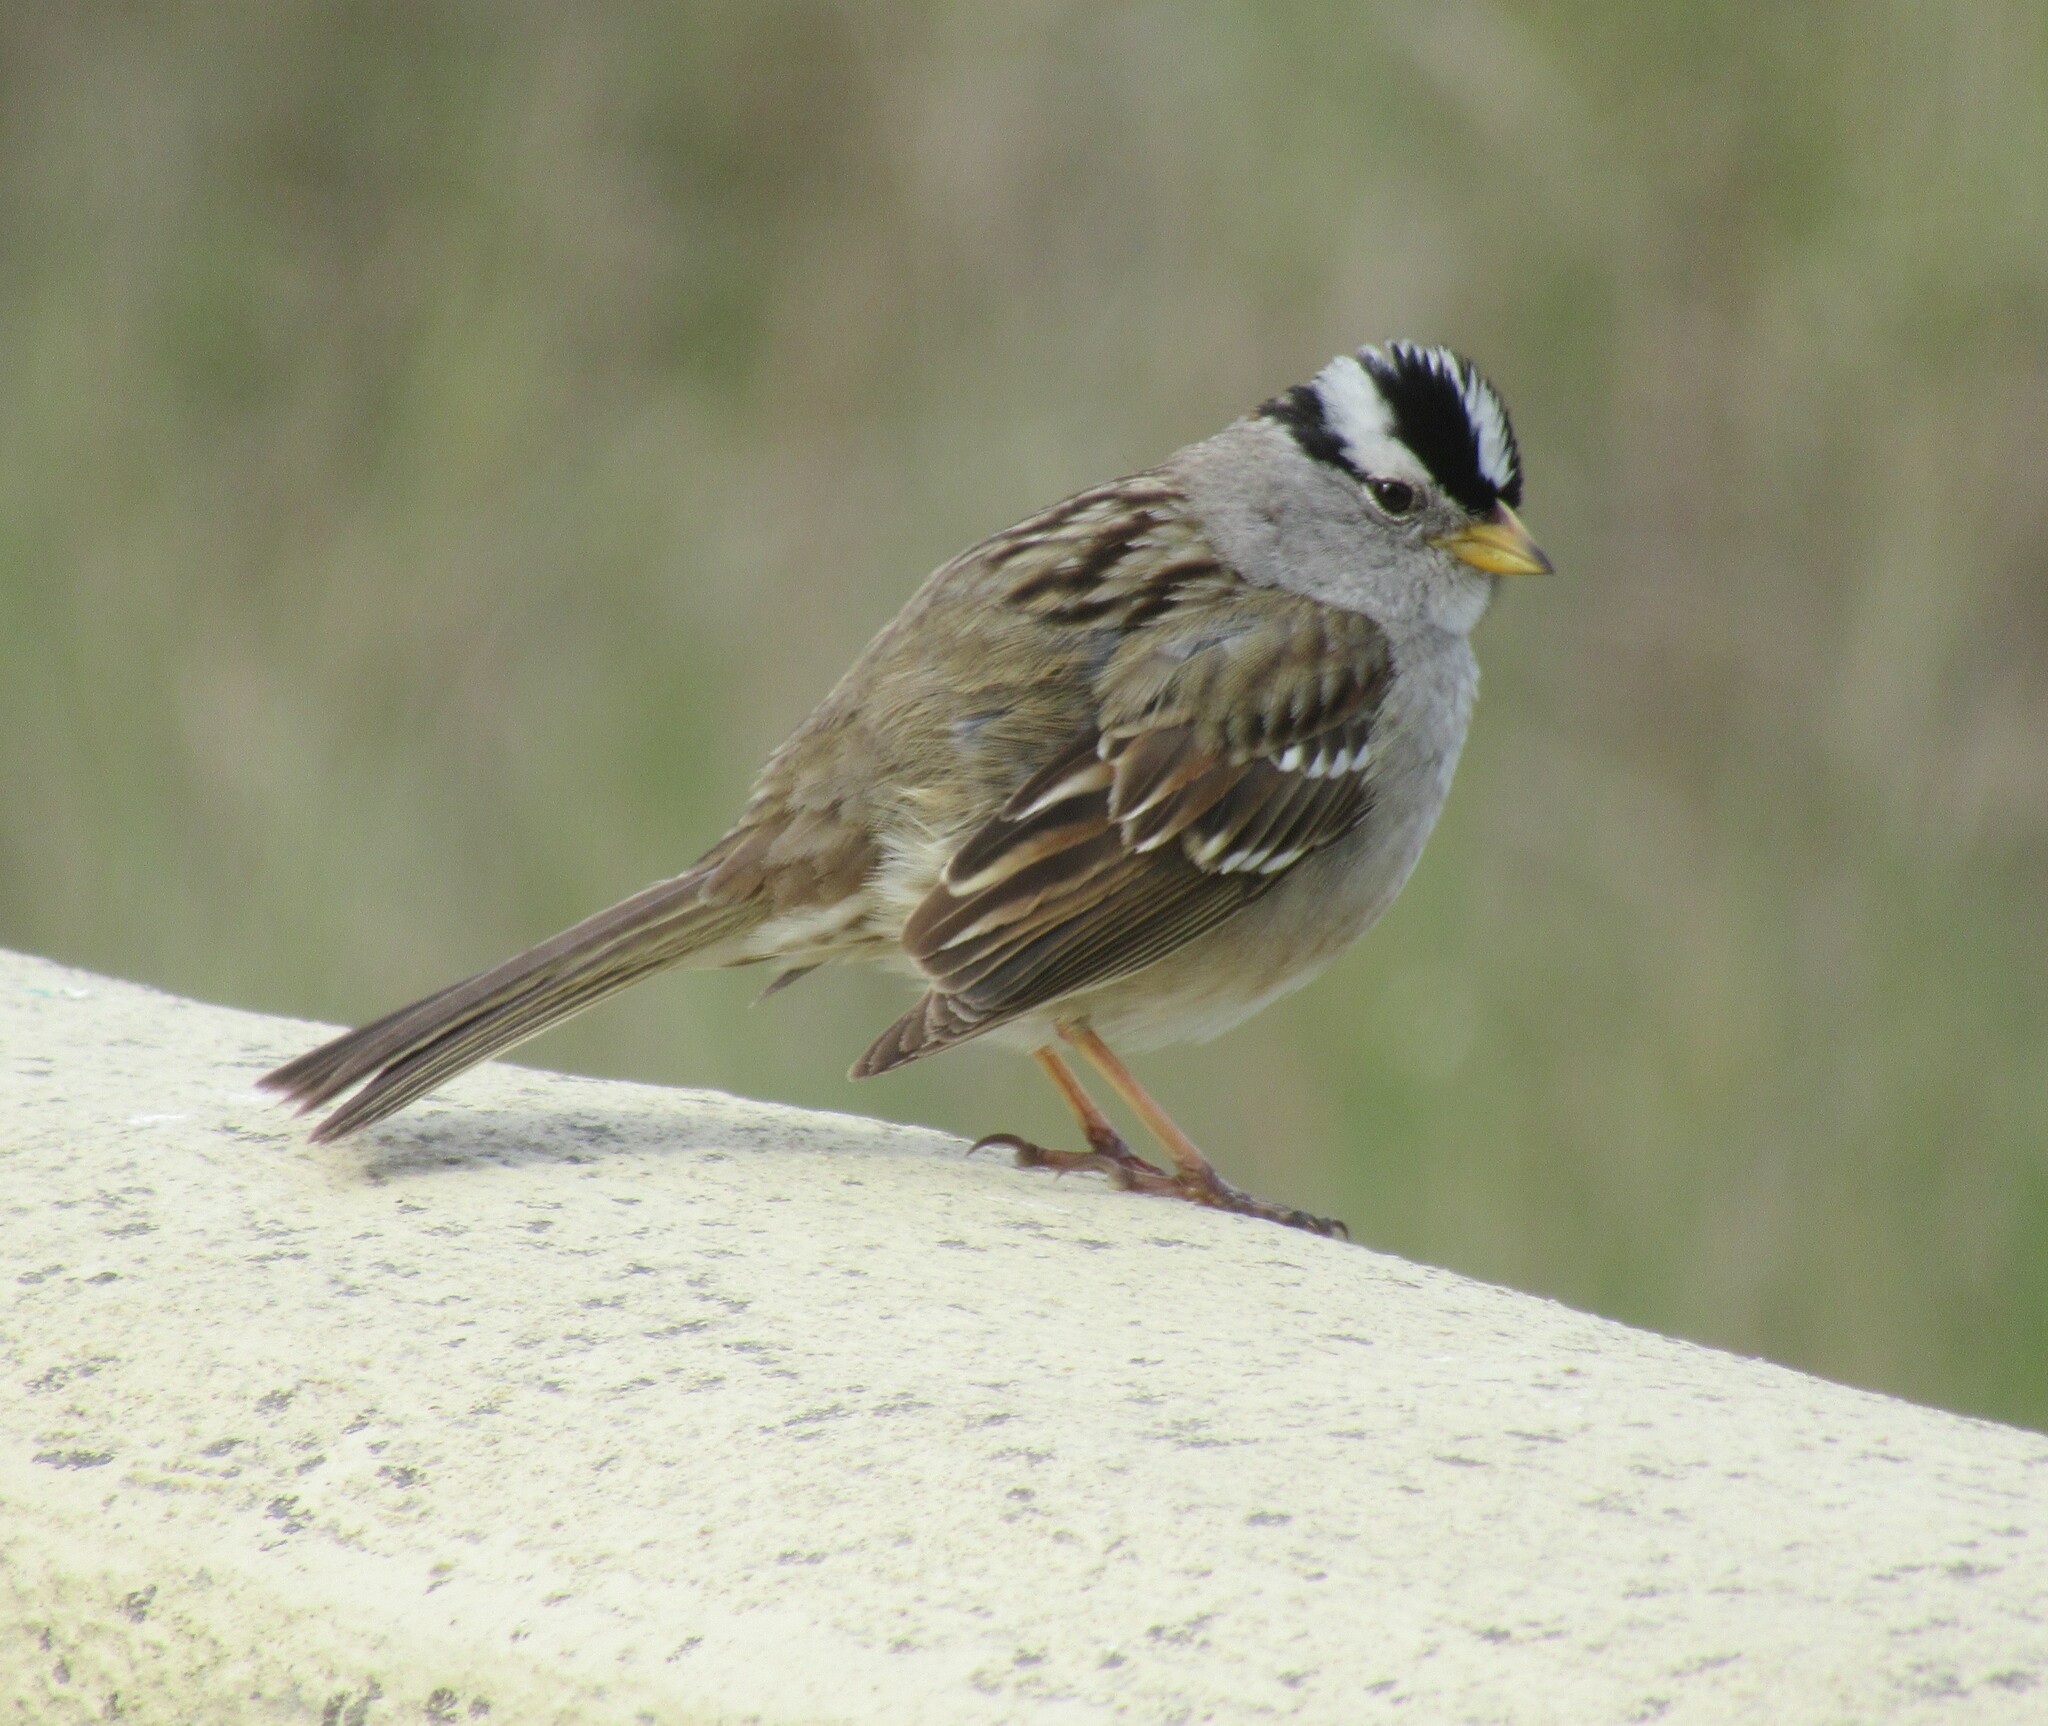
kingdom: Animalia
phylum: Chordata
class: Aves
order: Passeriformes
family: Passerellidae
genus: Zonotrichia
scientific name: Zonotrichia leucophrys
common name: White-crowned sparrow
